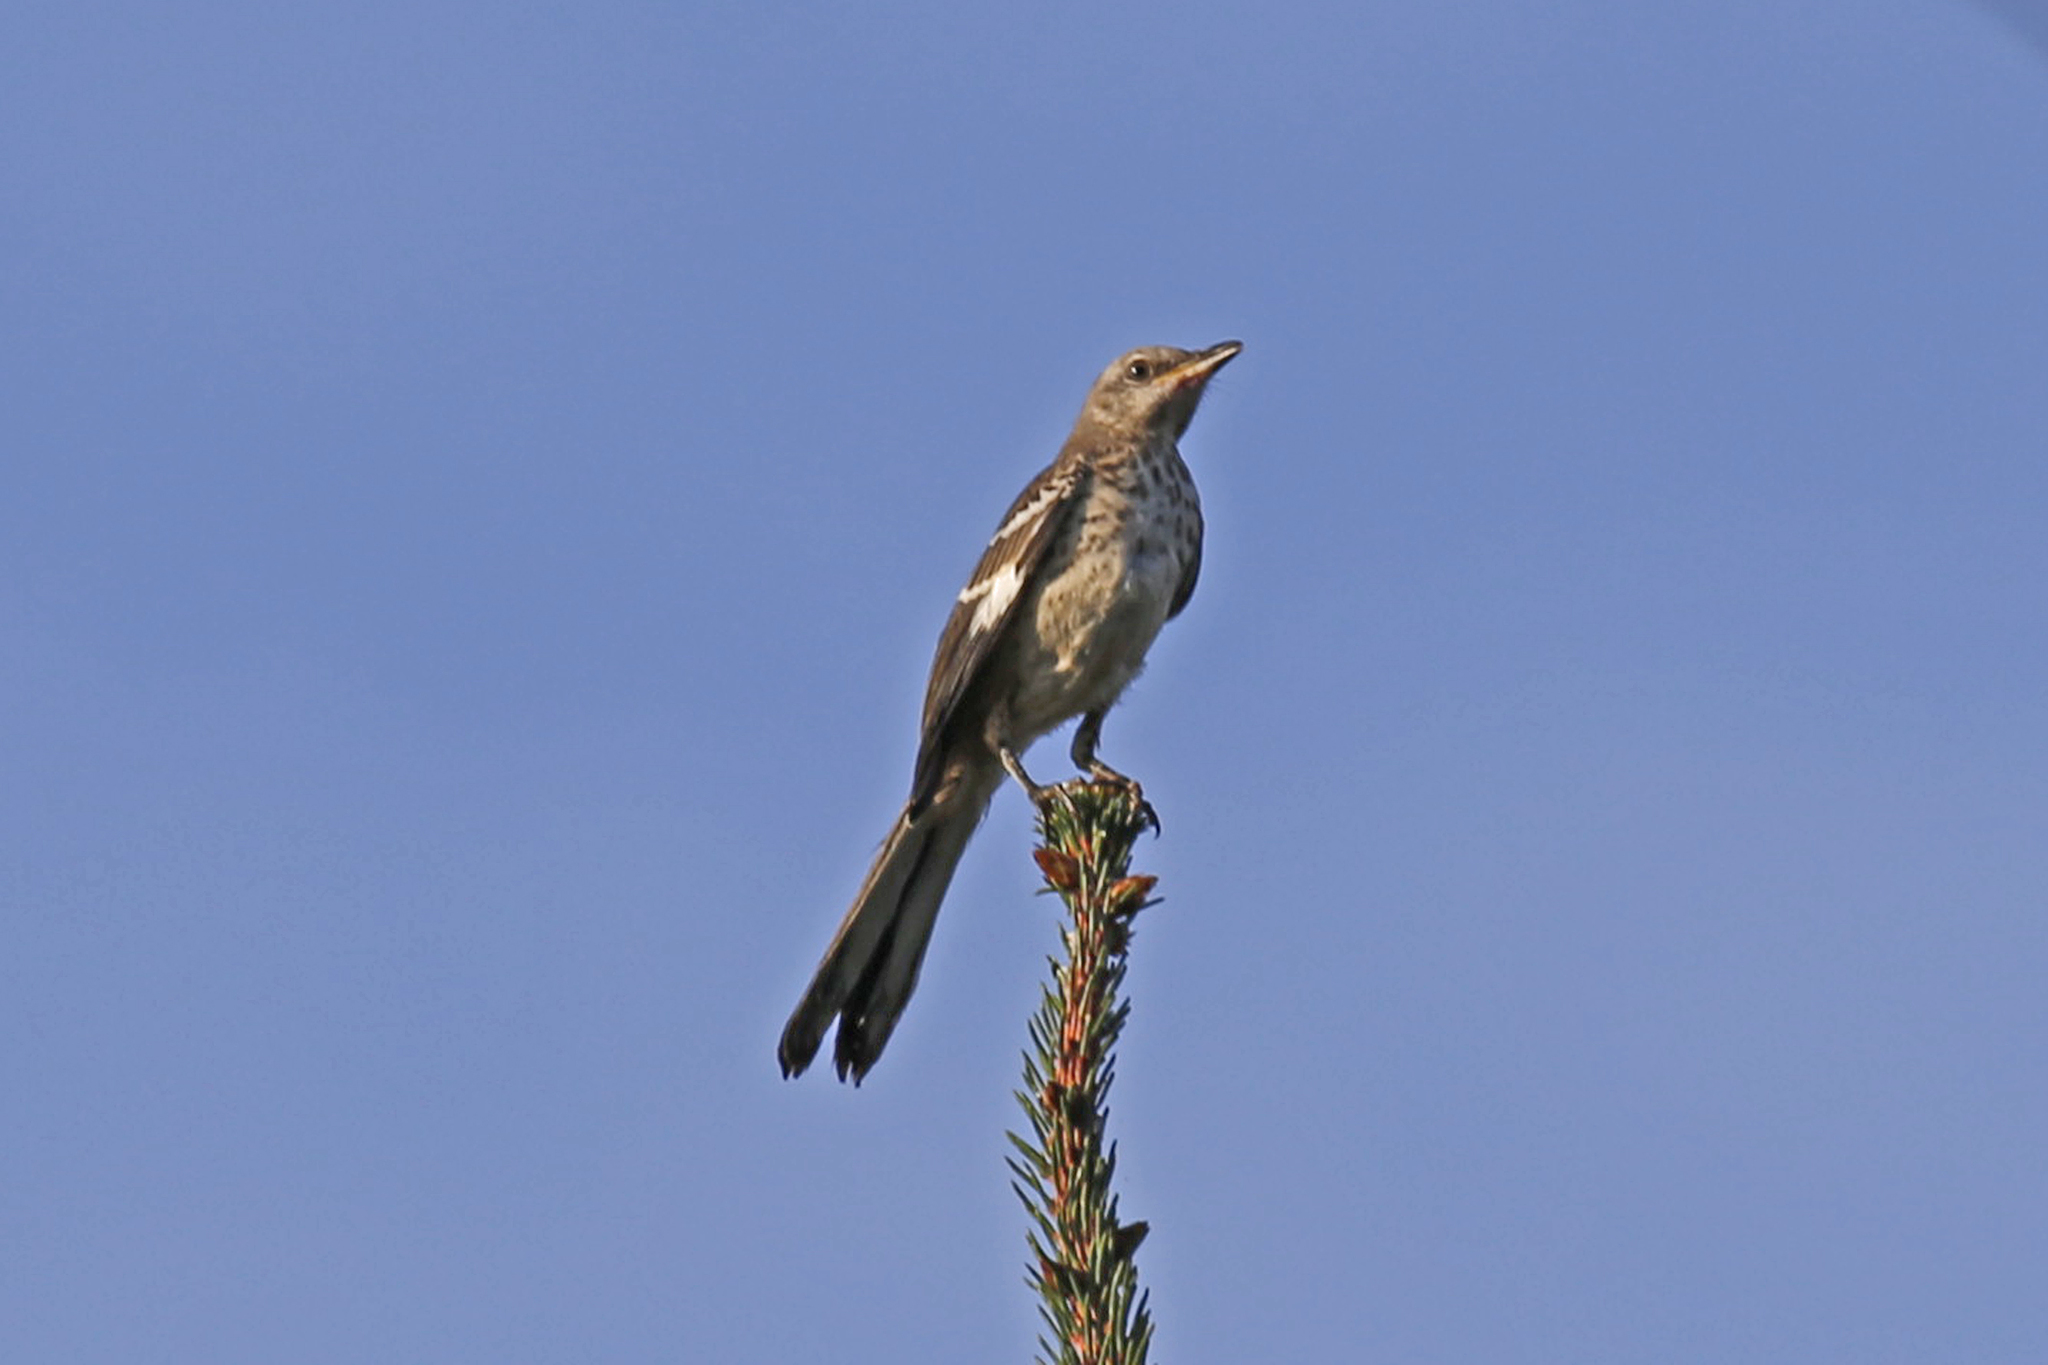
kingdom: Animalia
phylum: Chordata
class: Aves
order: Passeriformes
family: Mimidae
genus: Mimus
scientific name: Mimus polyglottos
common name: Northern mockingbird
